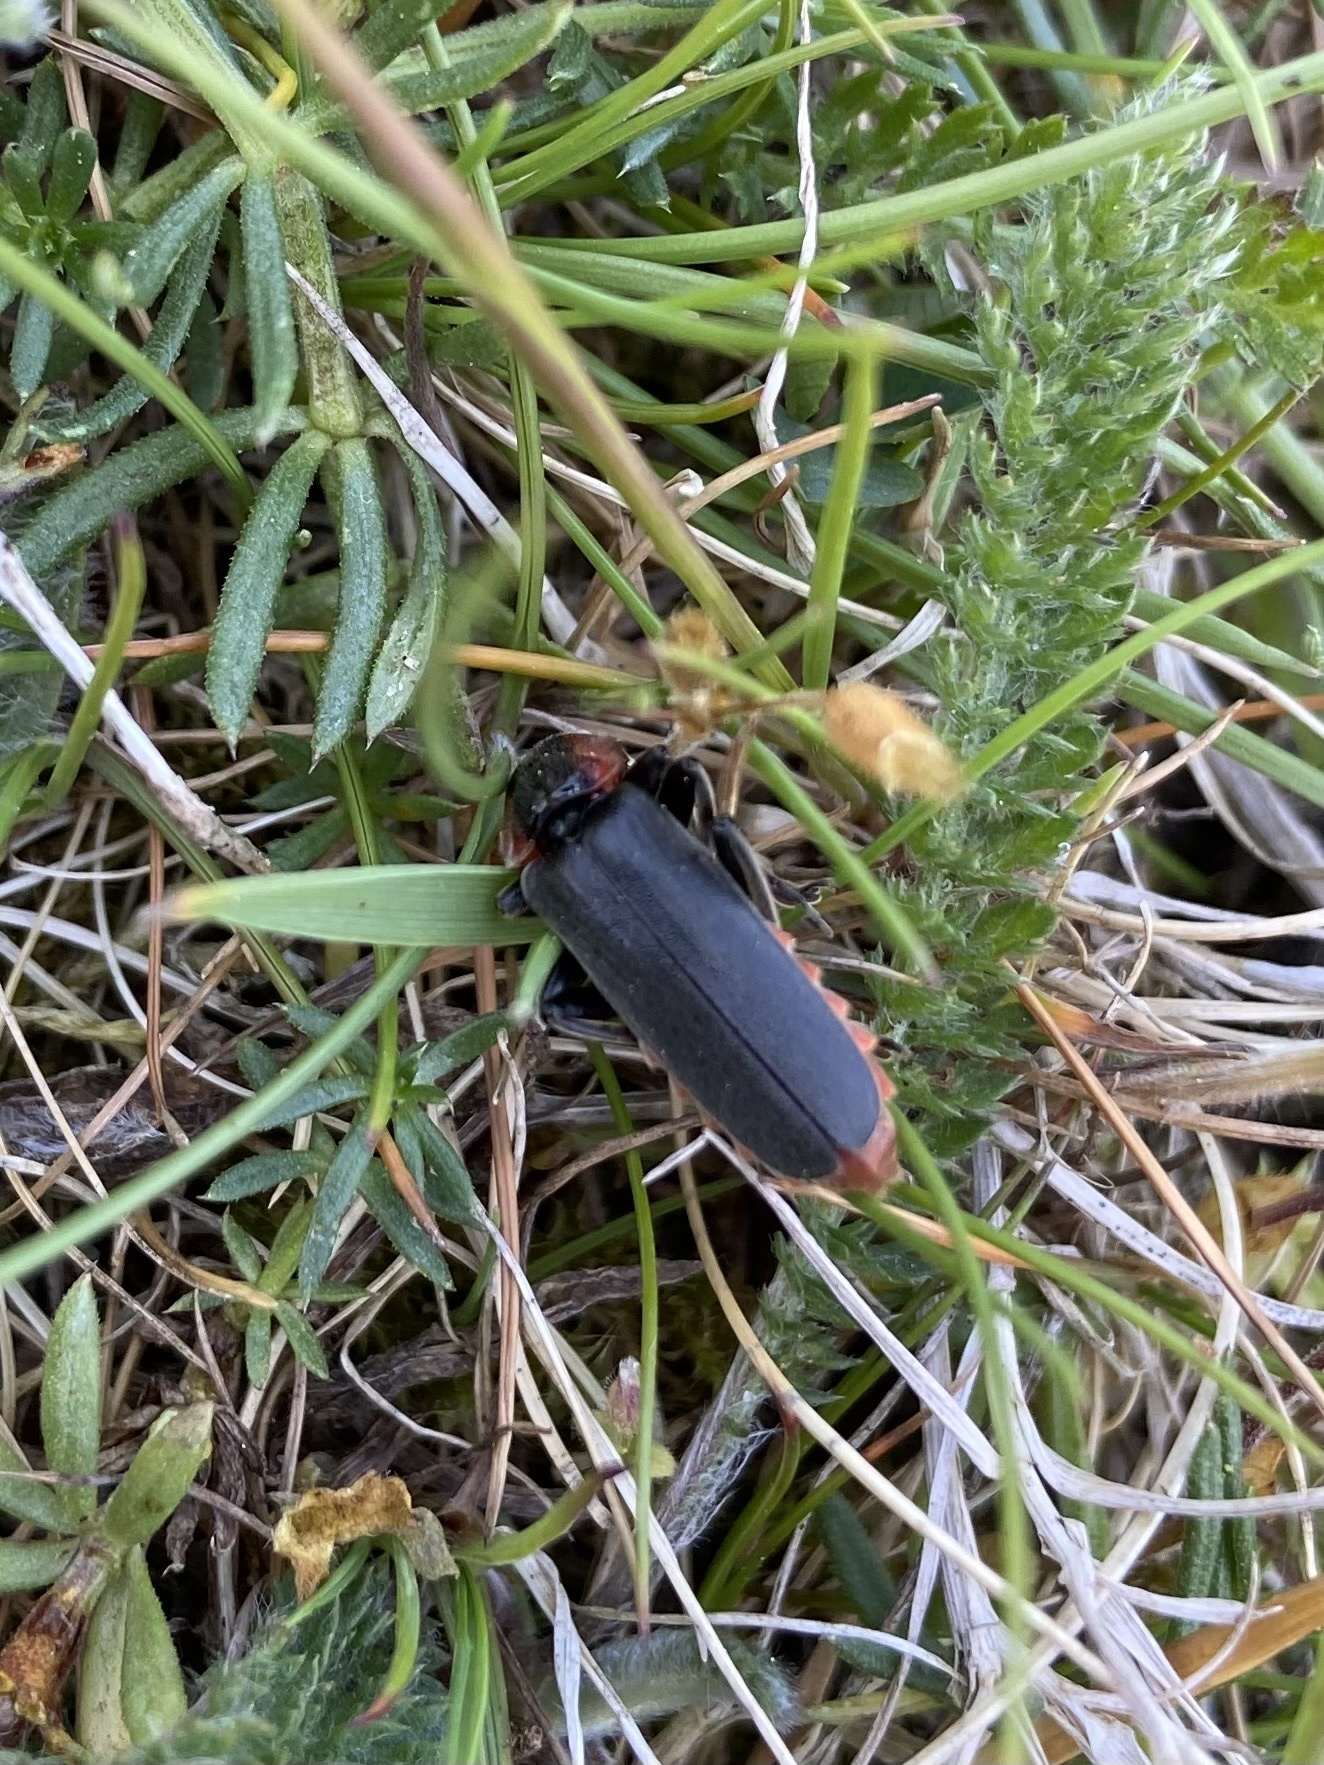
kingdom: Animalia
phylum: Arthropoda
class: Insecta
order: Coleoptera
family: Cantharidae
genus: Cantharis
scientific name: Cantharis fusca
